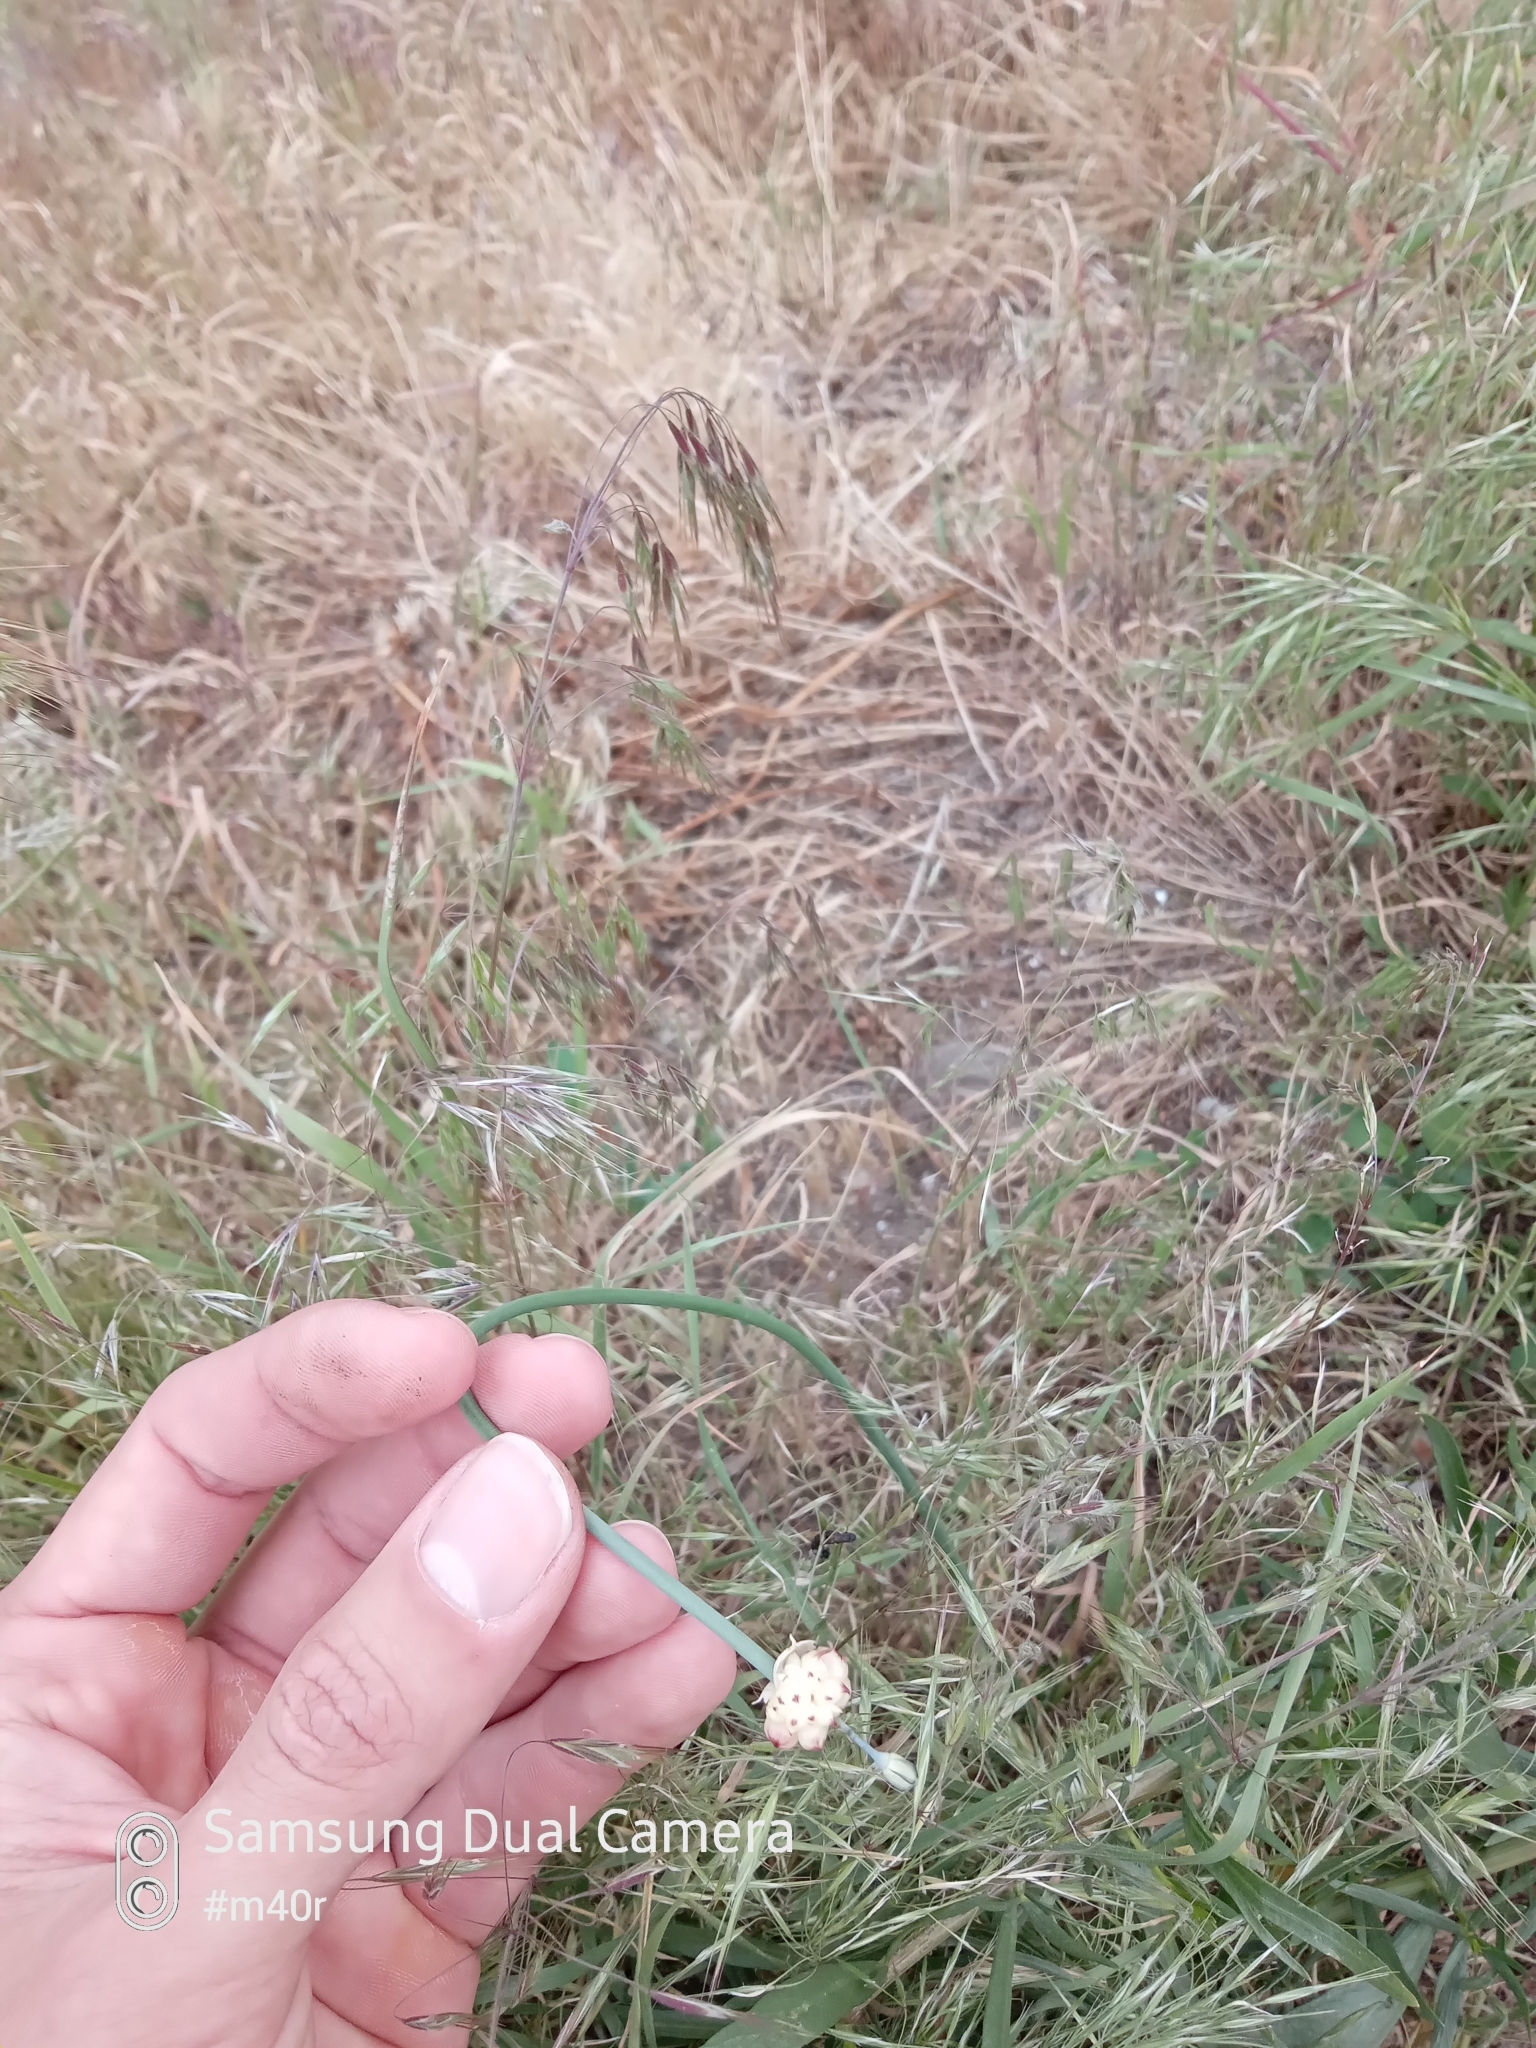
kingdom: Plantae
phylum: Tracheophyta
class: Liliopsida
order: Asparagales
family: Amaryllidaceae
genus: Allium
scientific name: Allium caeruleum
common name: Blue-of-the-heavens
